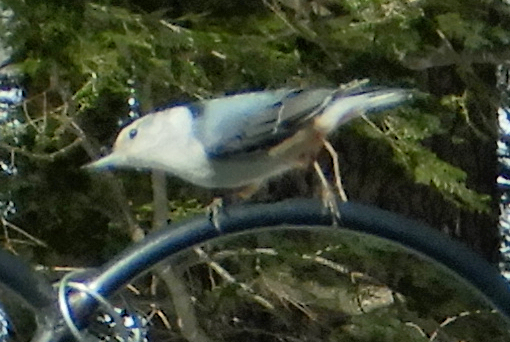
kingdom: Animalia
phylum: Chordata
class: Aves
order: Passeriformes
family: Sittidae
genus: Sitta
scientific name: Sitta carolinensis
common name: White-breasted nuthatch
